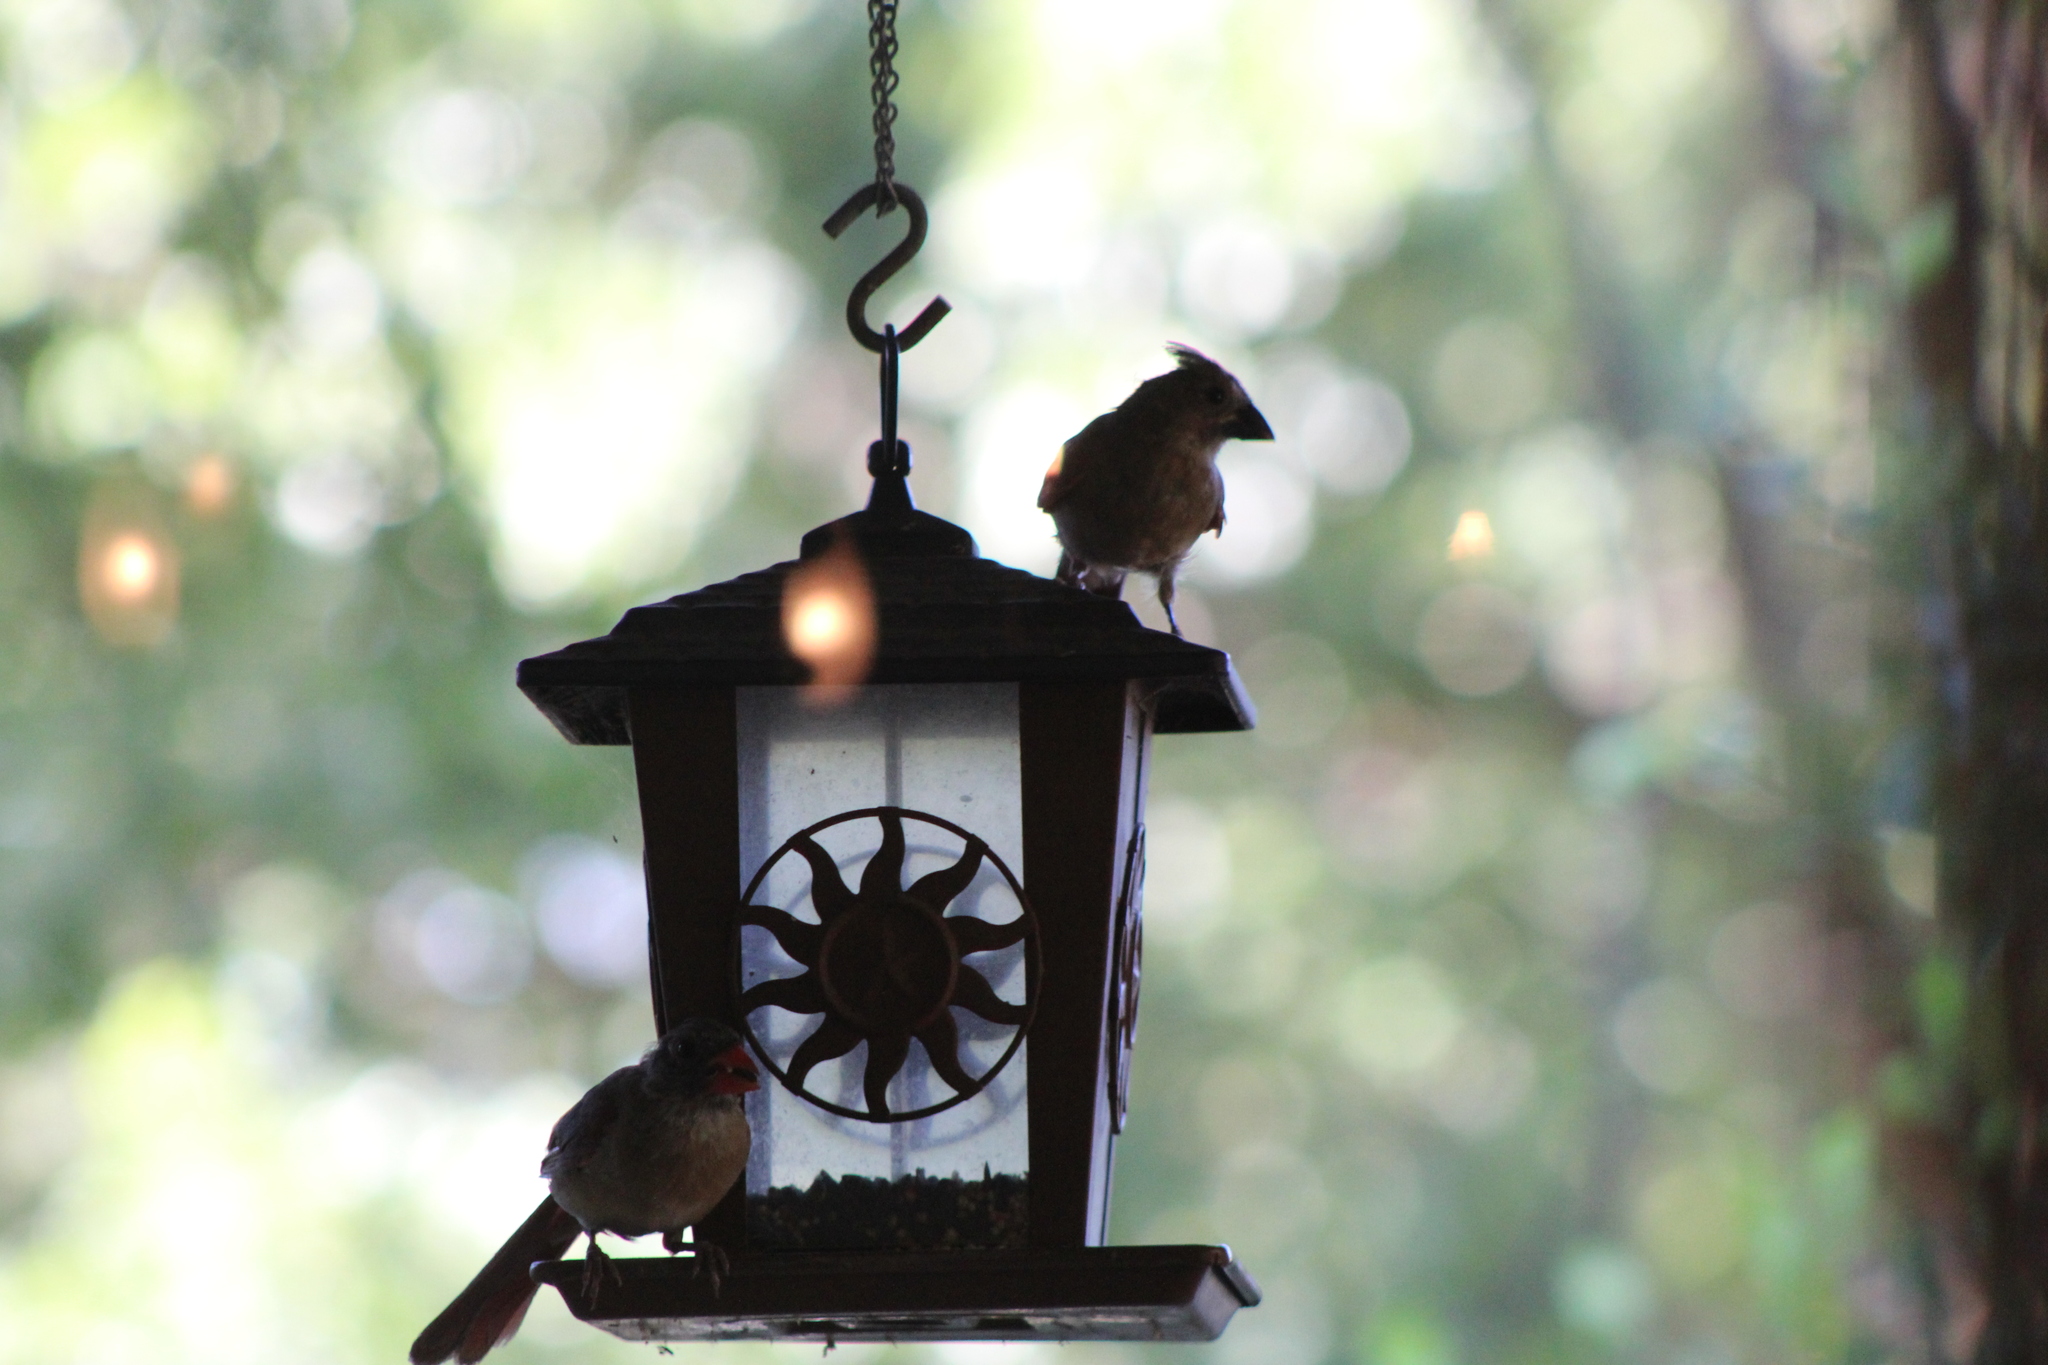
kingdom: Animalia
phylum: Chordata
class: Aves
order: Passeriformes
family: Cardinalidae
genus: Cardinalis
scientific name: Cardinalis cardinalis
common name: Northern cardinal
